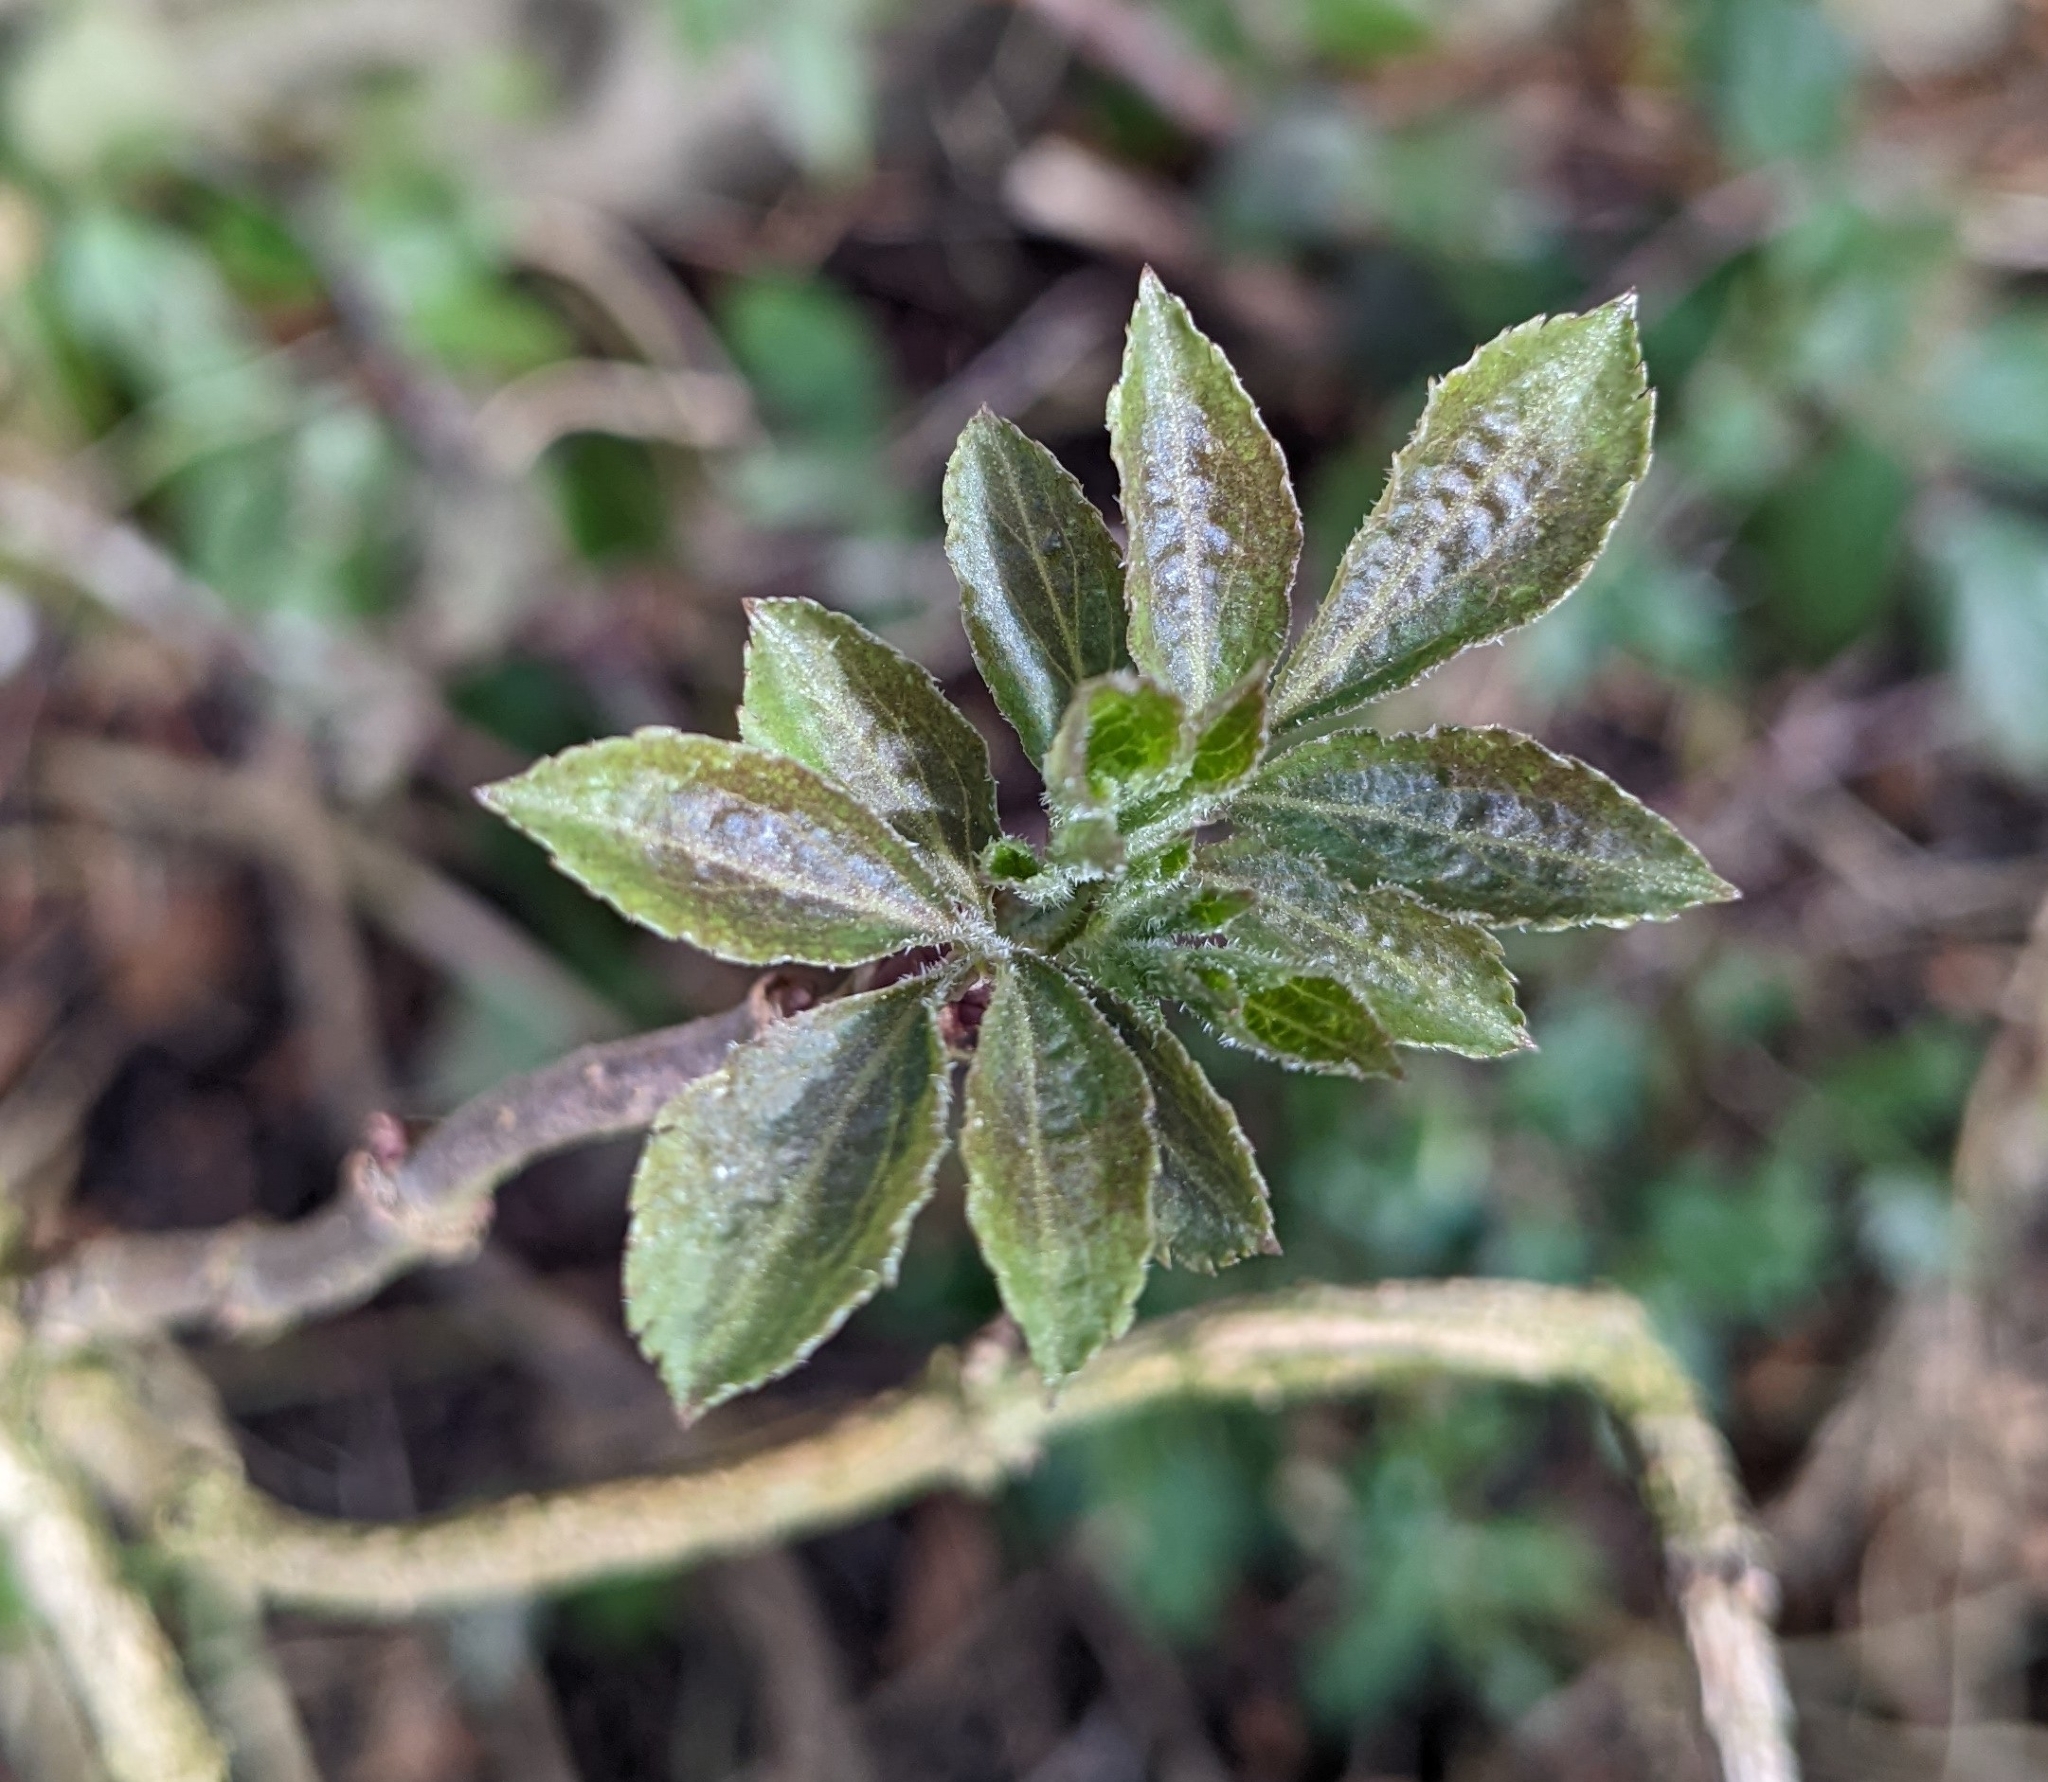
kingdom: Plantae
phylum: Tracheophyta
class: Magnoliopsida
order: Dipsacales
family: Viburnaceae
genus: Sambucus
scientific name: Sambucus nigra
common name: Elder
